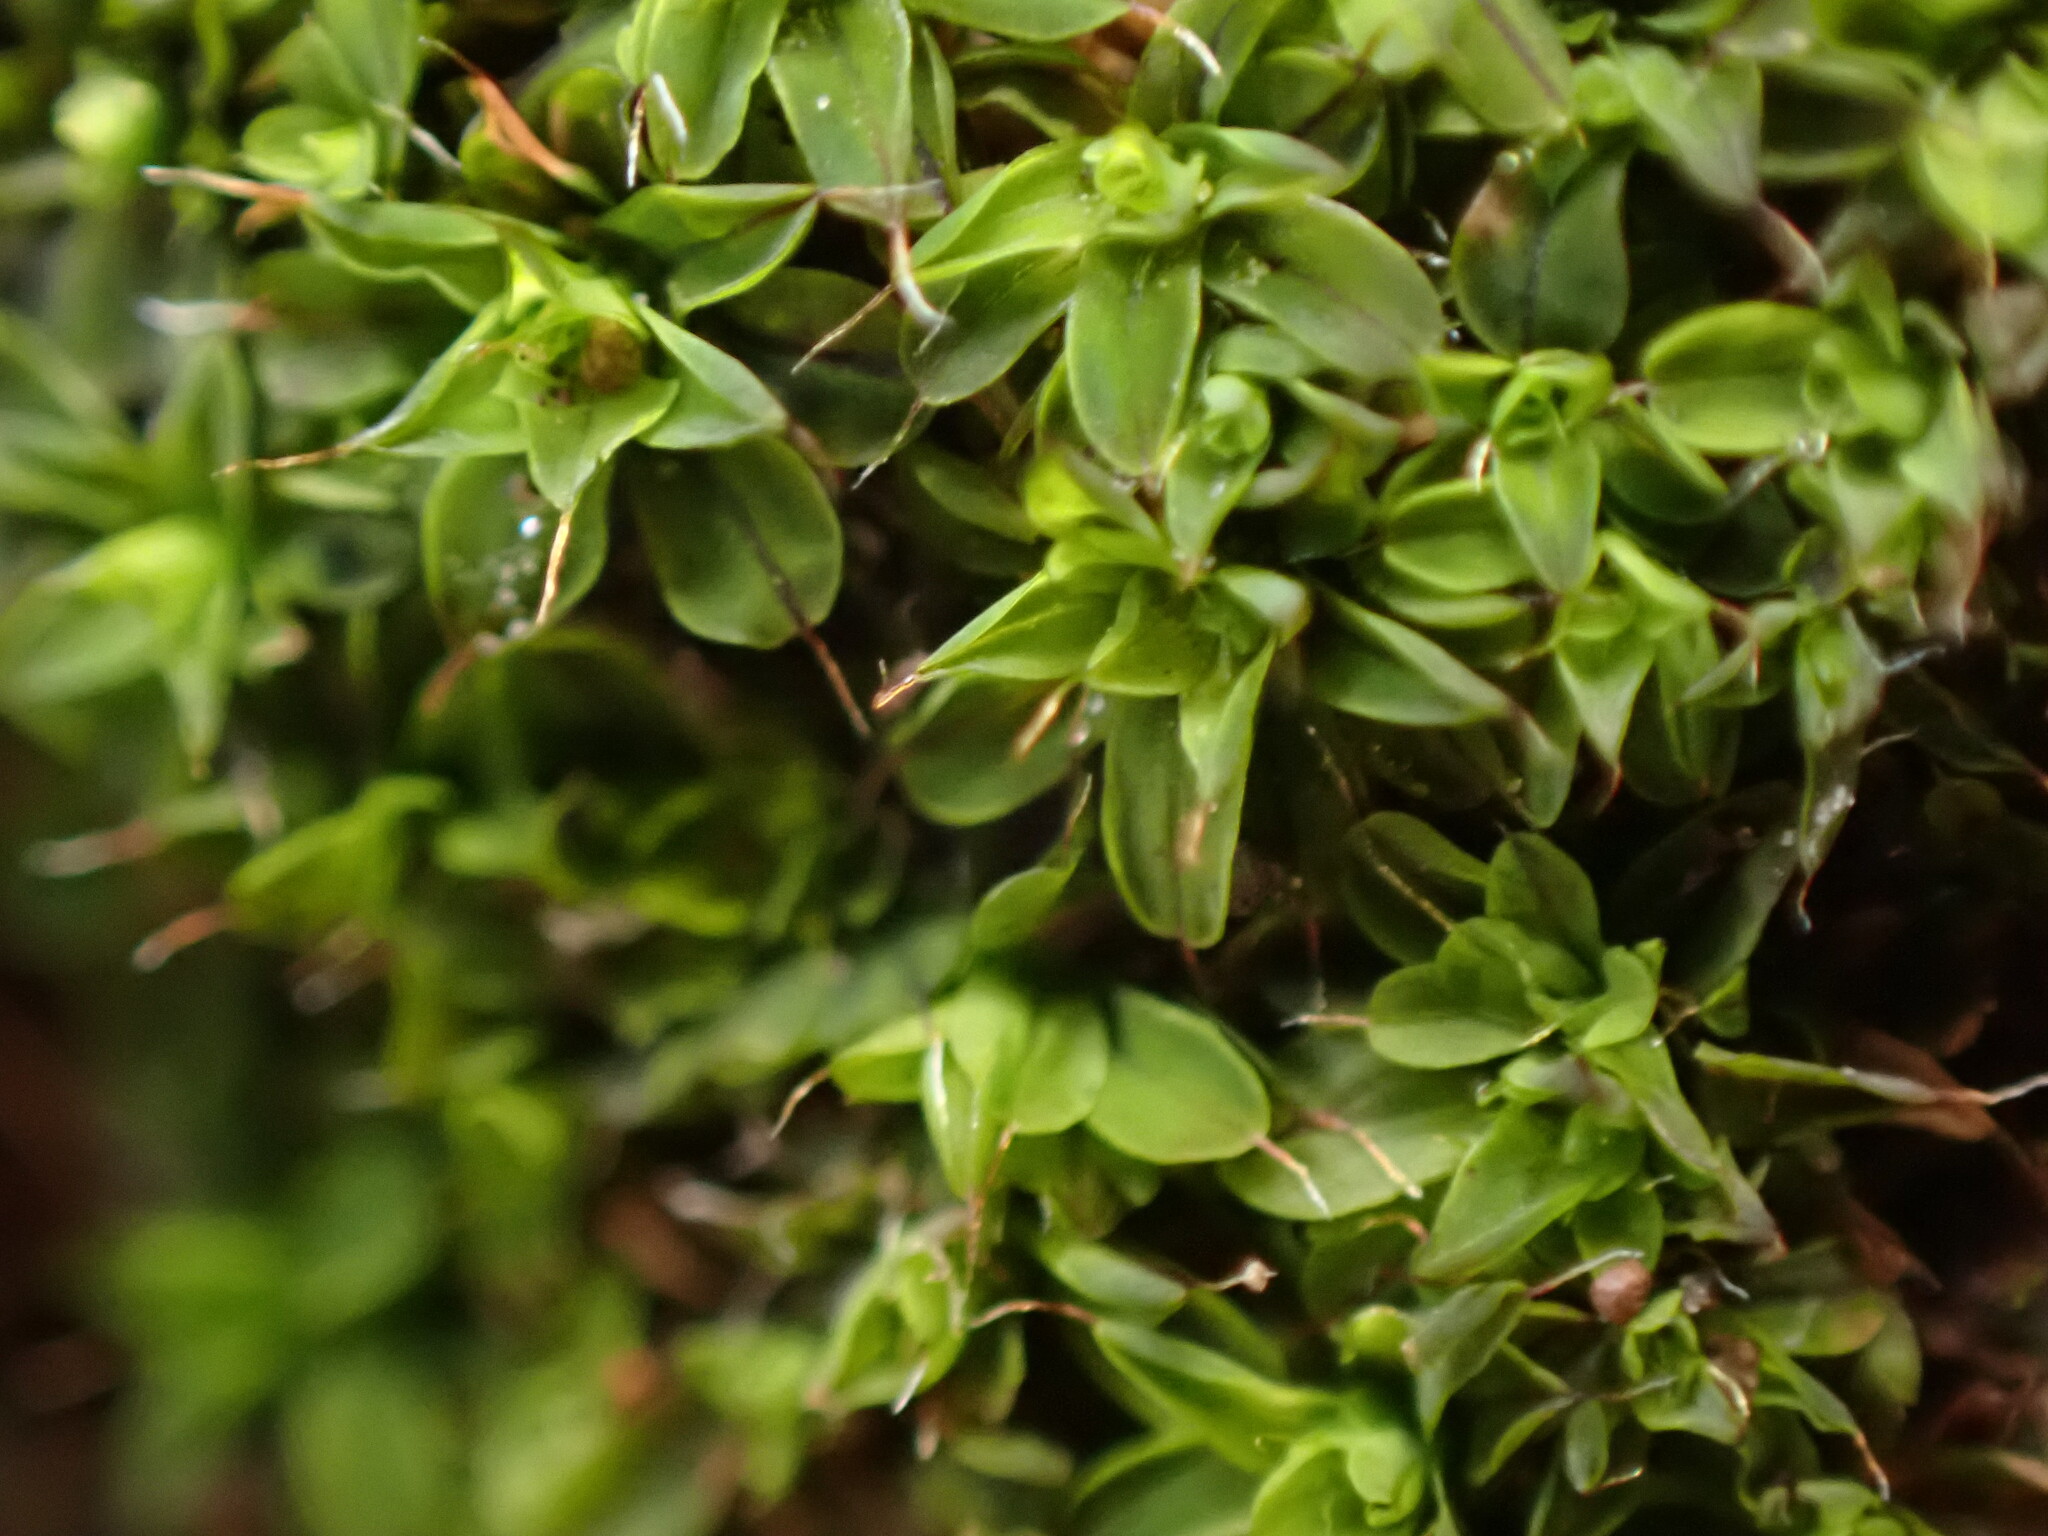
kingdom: Plantae
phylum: Bryophyta
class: Bryopsida
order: Pottiales
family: Pottiaceae
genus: Syntrichia
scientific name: Syntrichia pagorum
